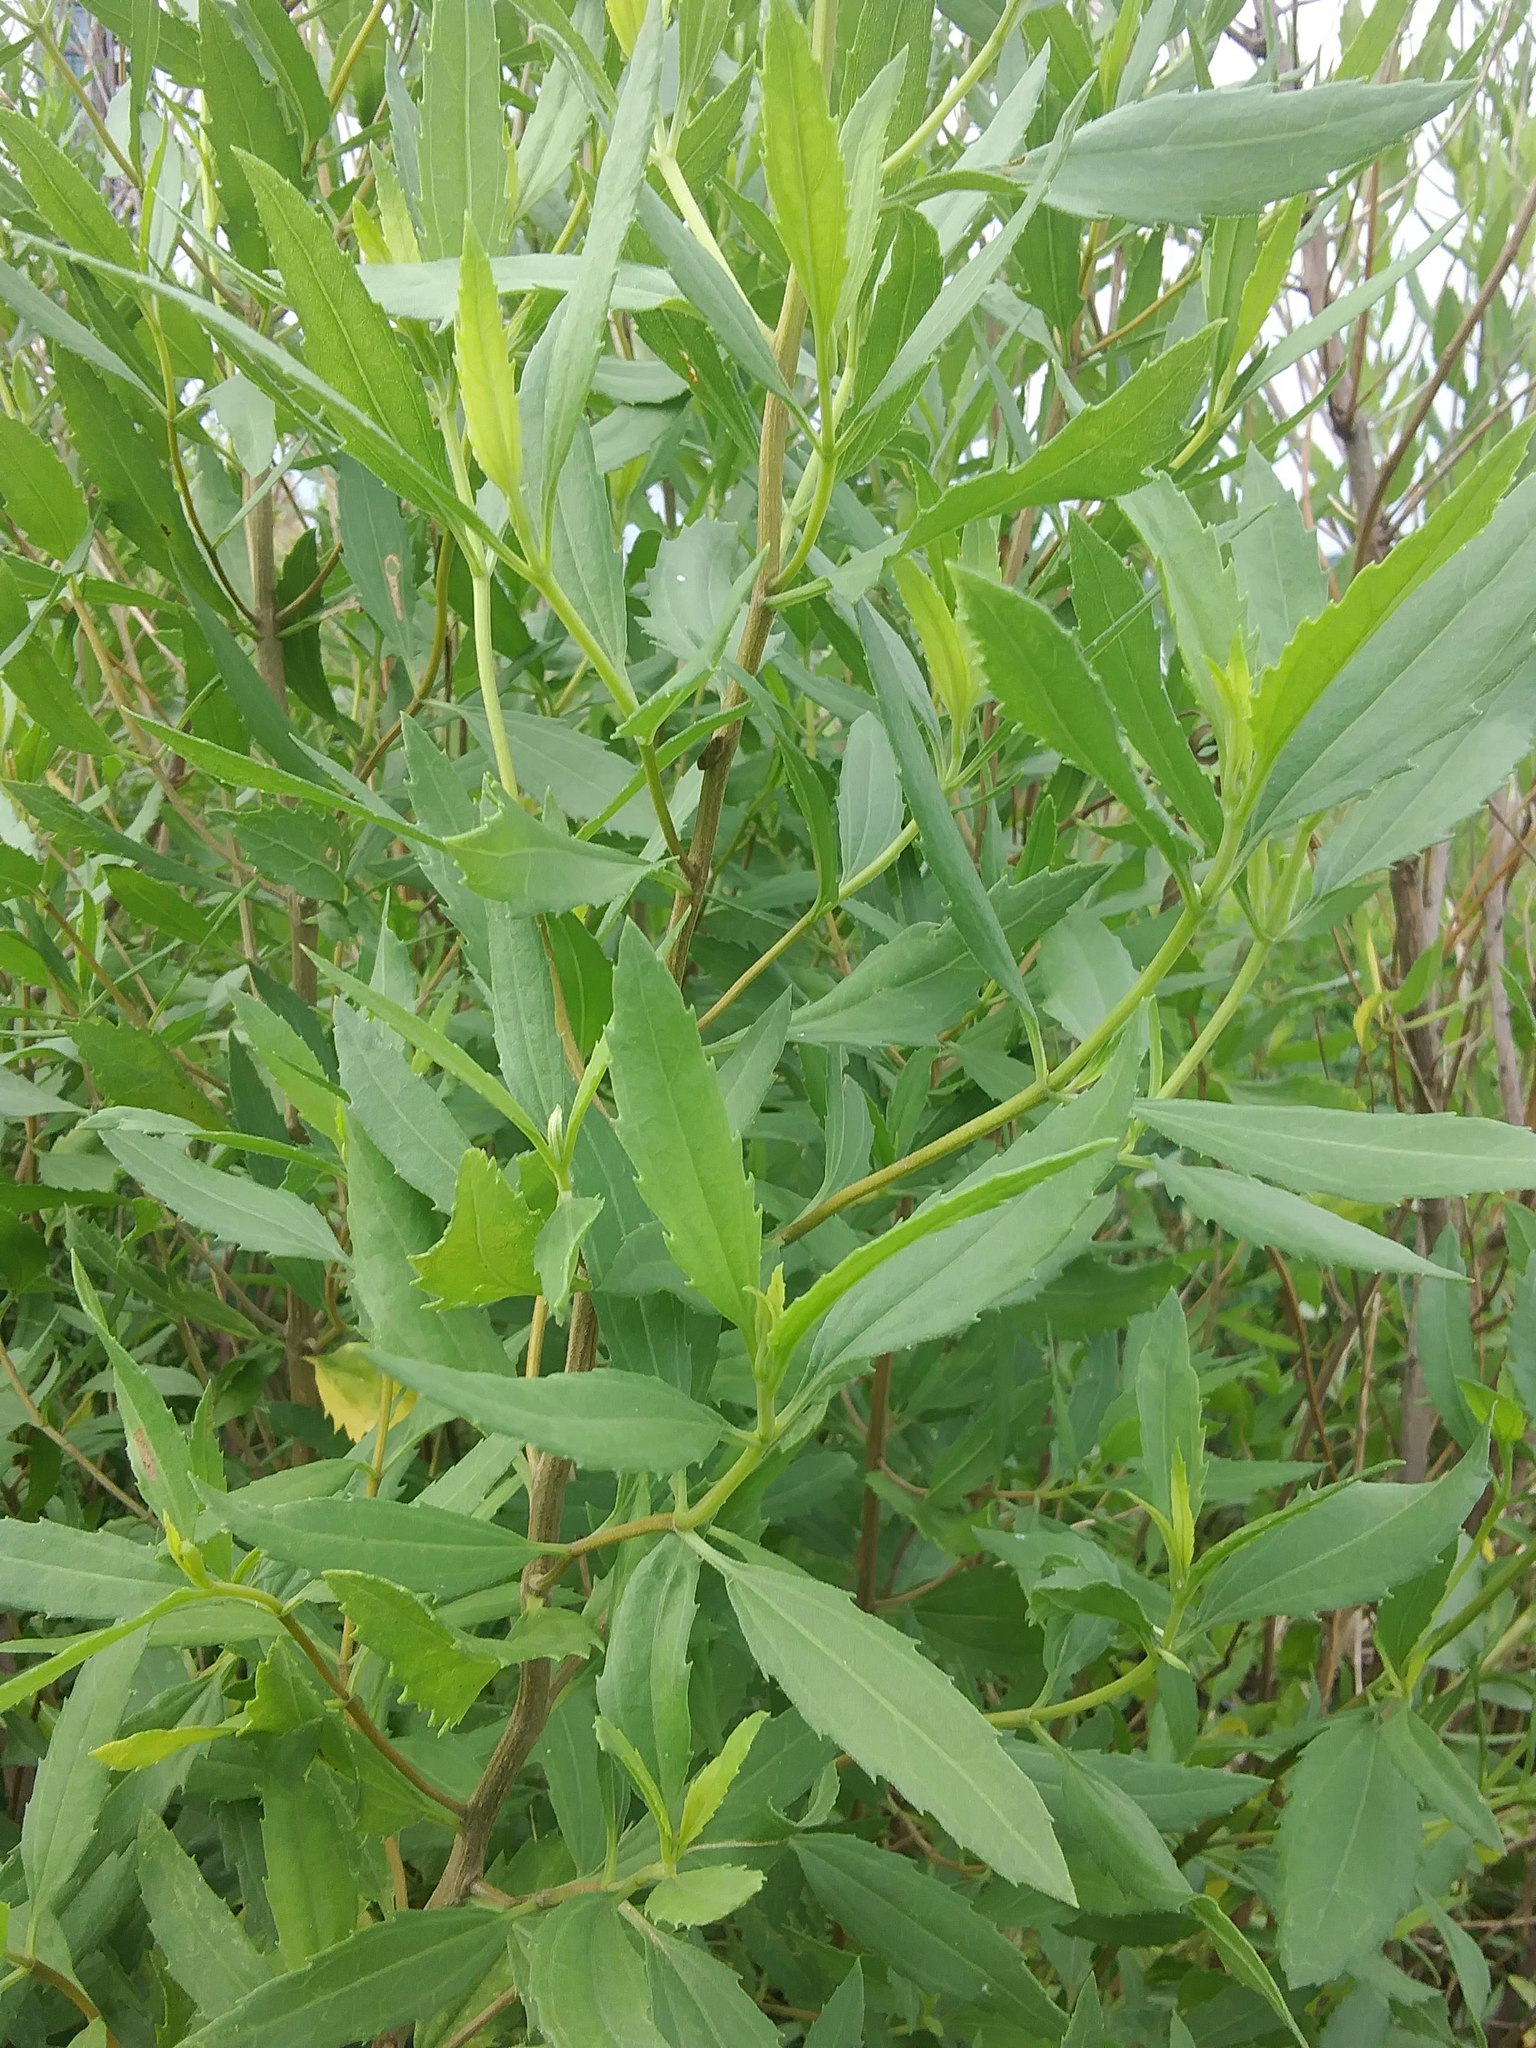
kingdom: Plantae
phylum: Tracheophyta
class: Magnoliopsida
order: Asterales
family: Asteraceae
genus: Iva
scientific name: Iva frutescens
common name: Big-leaved marsh-elder
